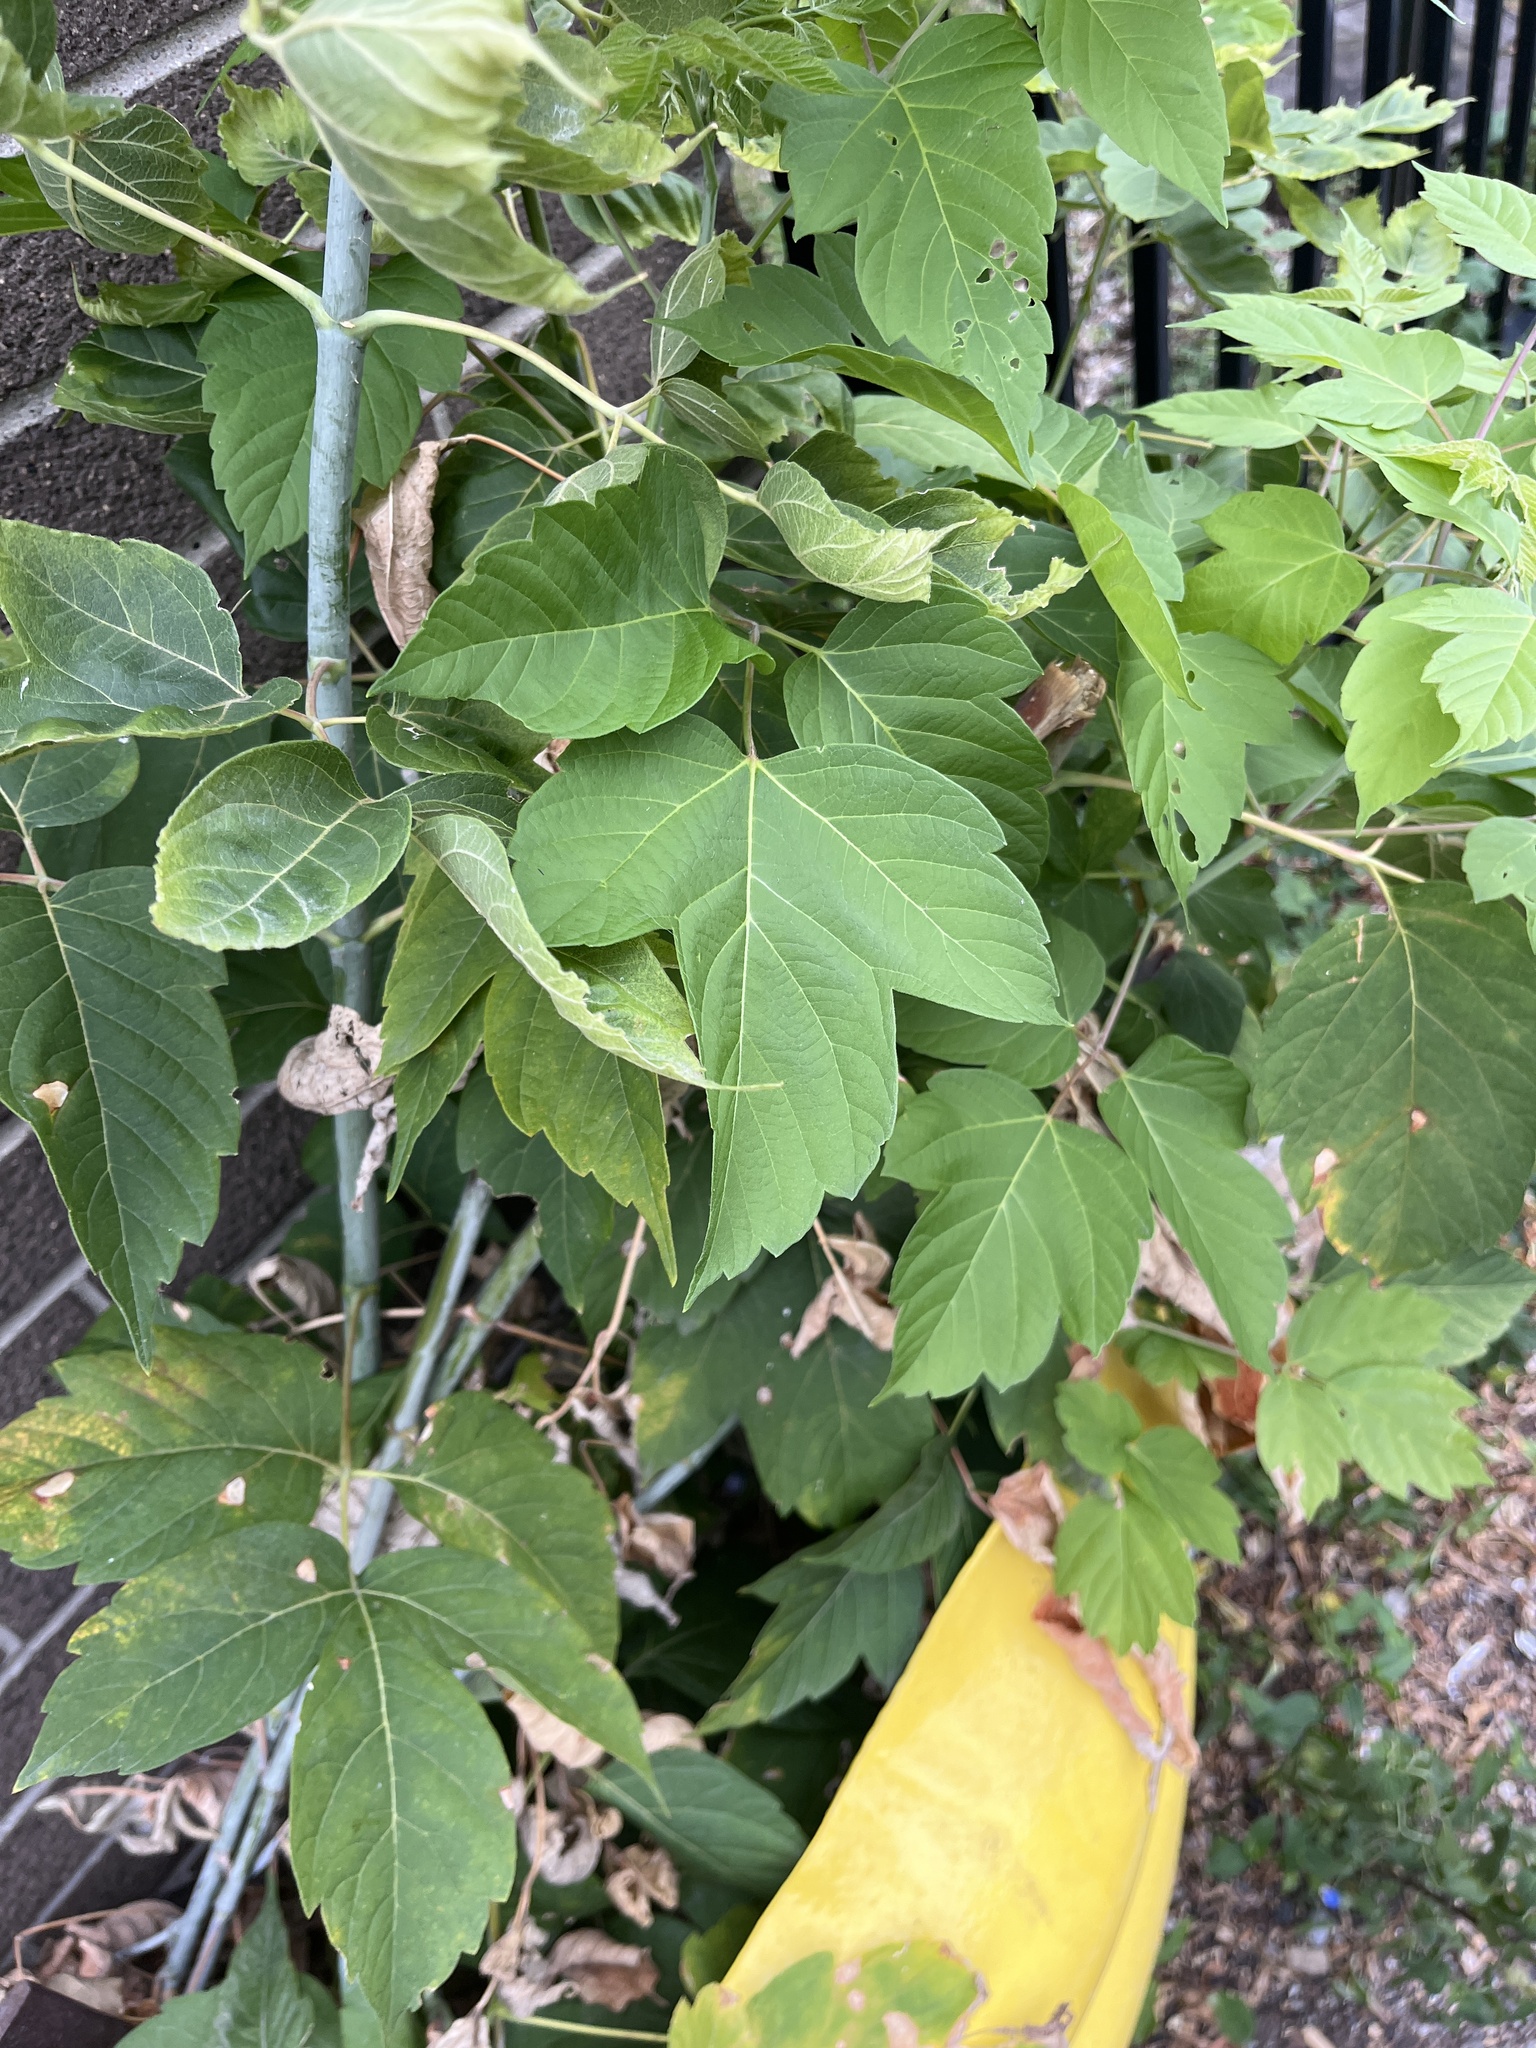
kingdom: Plantae
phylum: Tracheophyta
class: Magnoliopsida
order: Sapindales
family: Sapindaceae
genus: Acer
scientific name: Acer negundo
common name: Ashleaf maple
